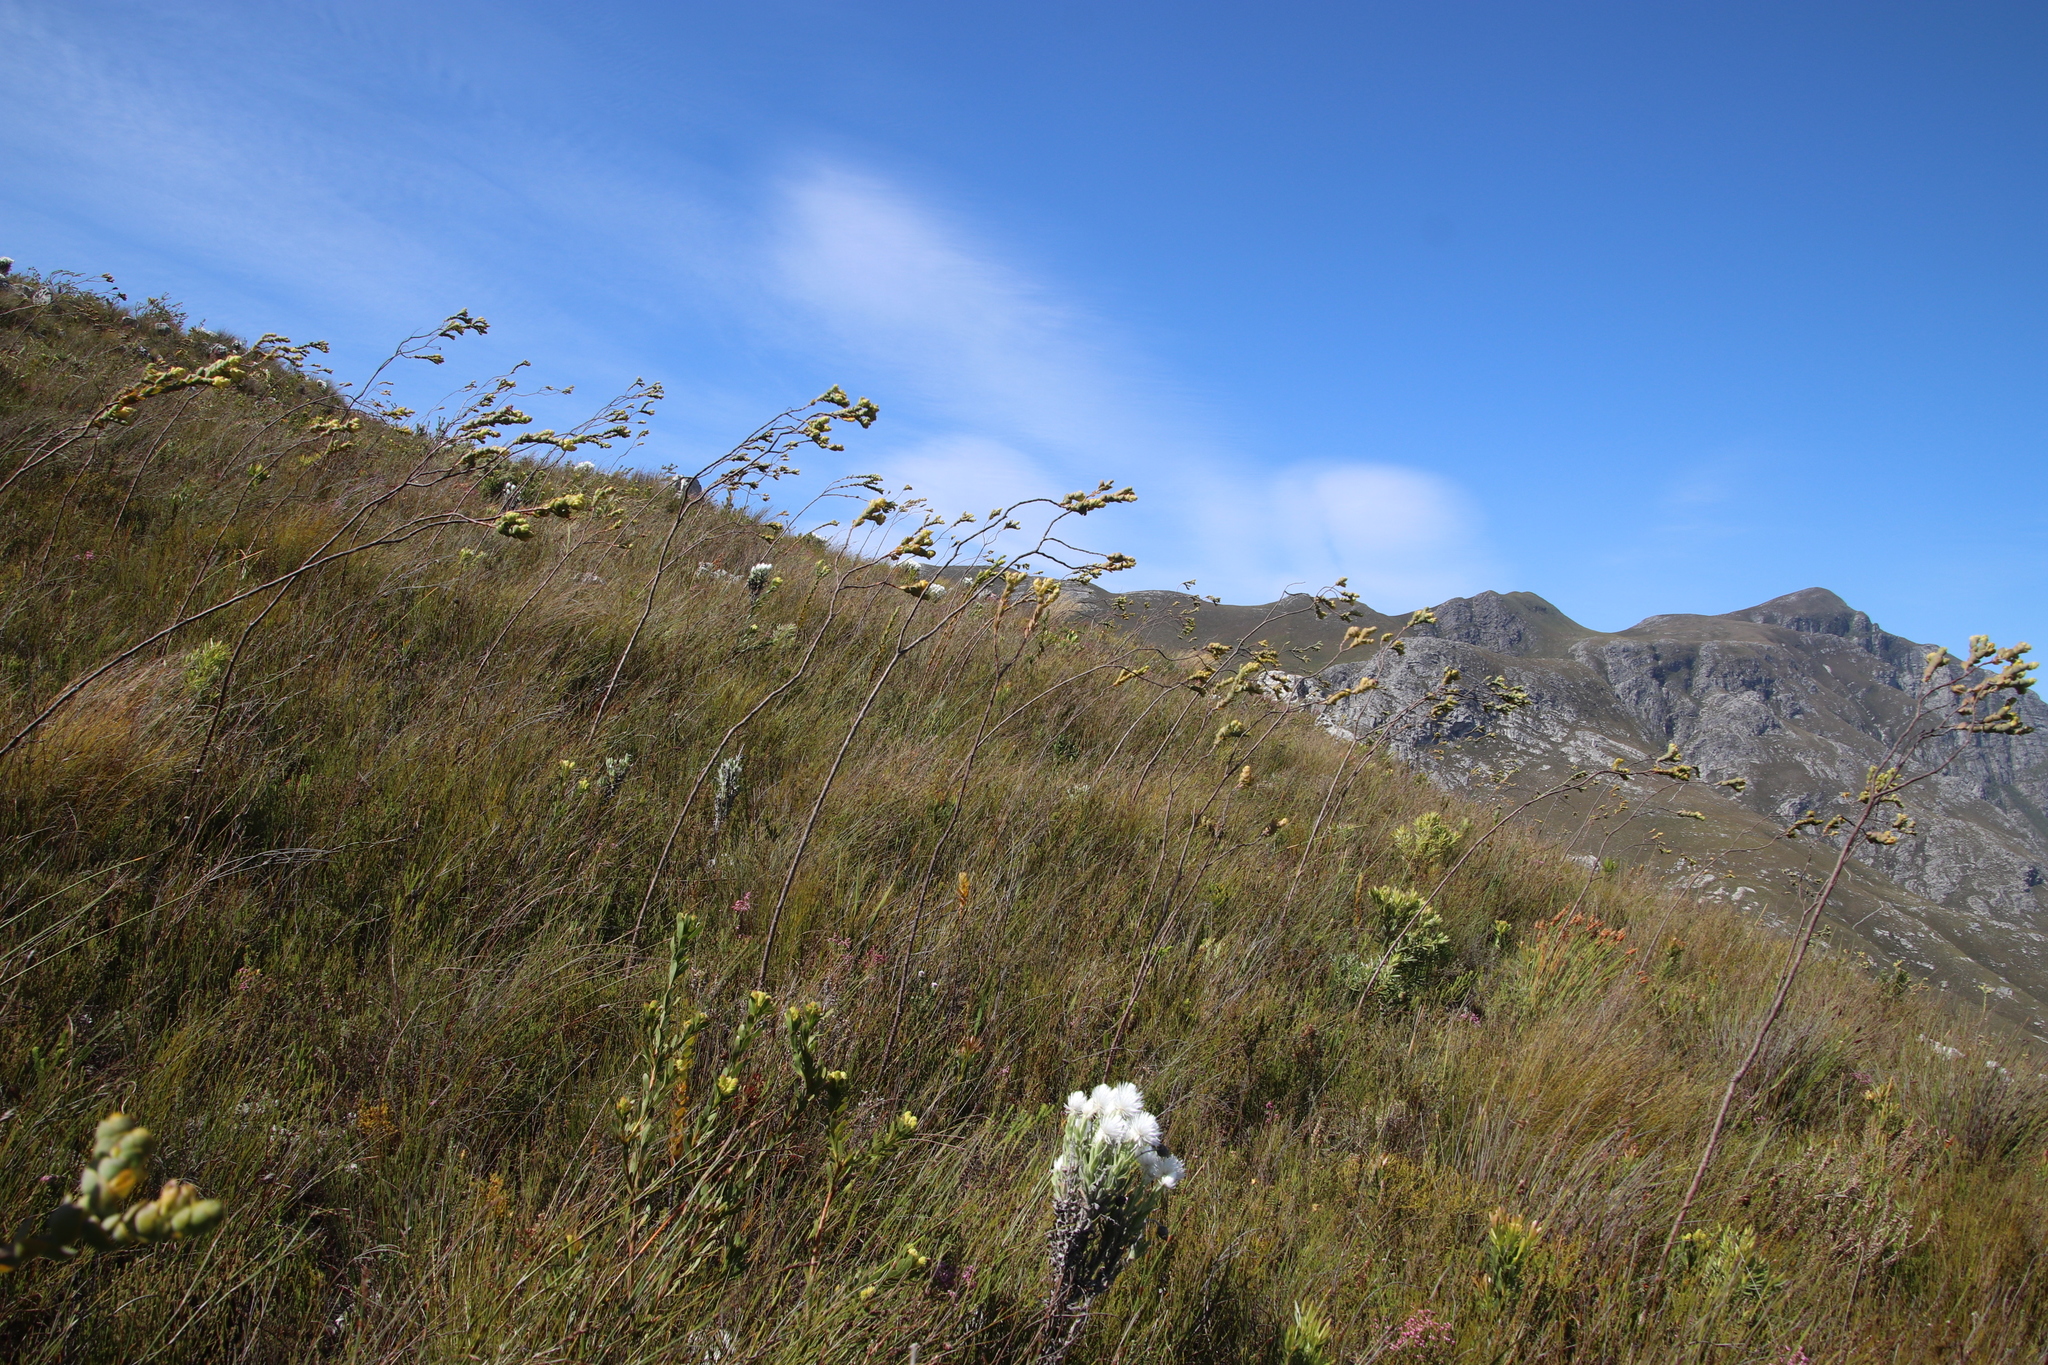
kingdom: Plantae
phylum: Tracheophyta
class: Magnoliopsida
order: Santalales
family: Thesiaceae
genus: Thesium
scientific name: Thesium euphorbioides
